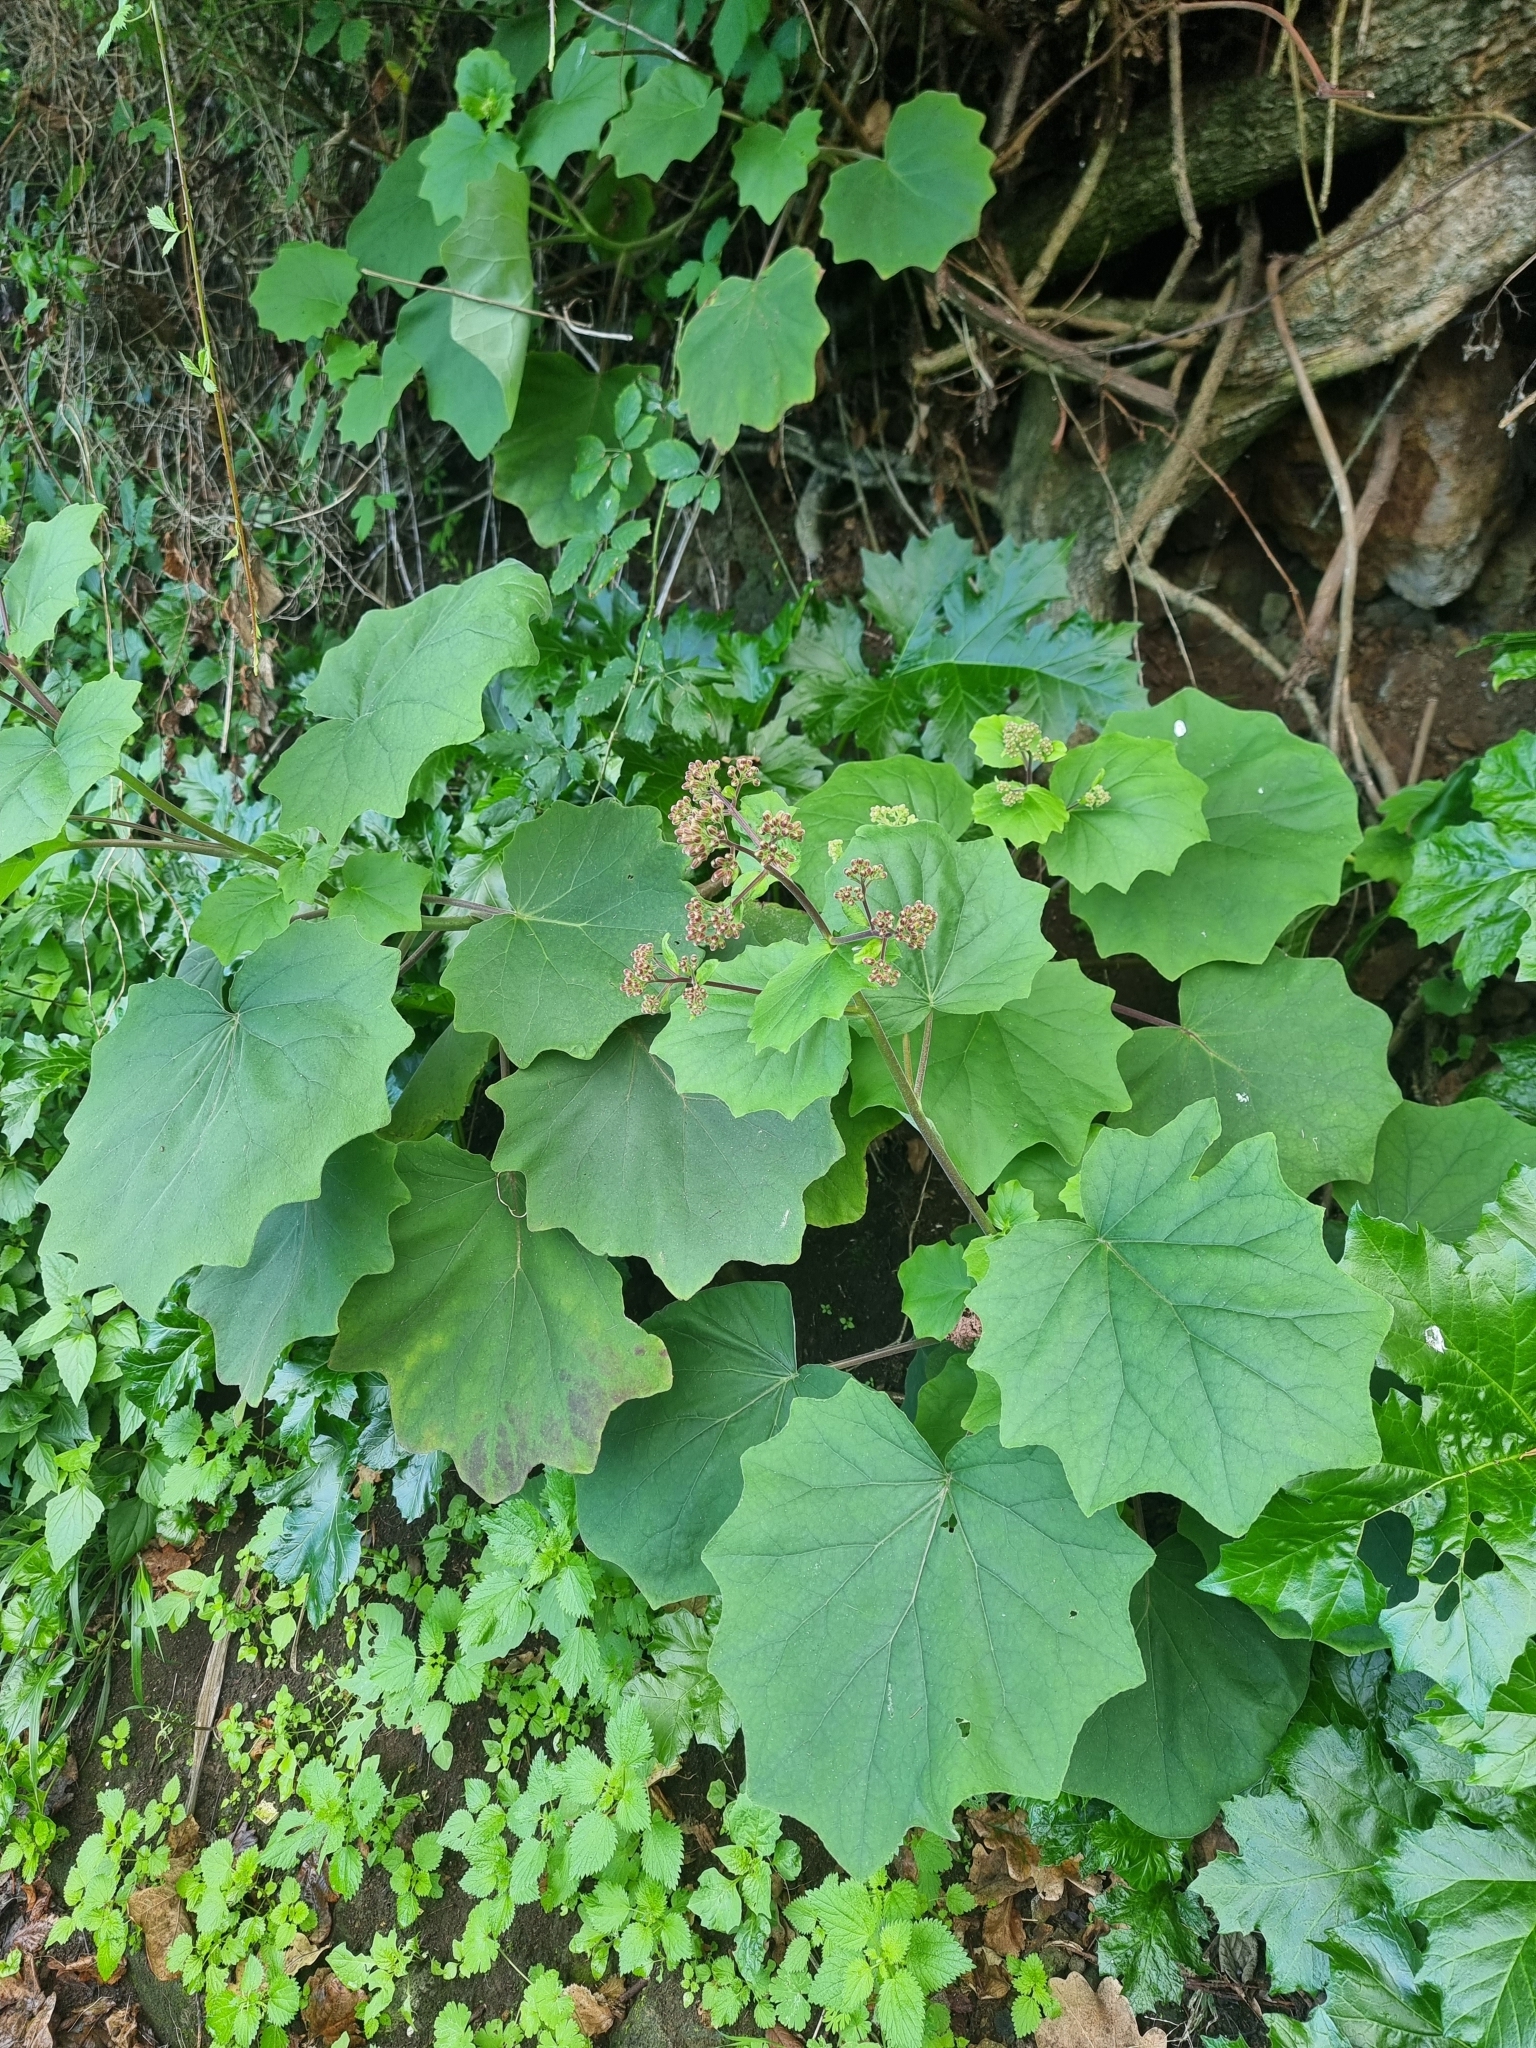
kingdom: Plantae
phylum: Tracheophyta
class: Magnoliopsida
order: Asterales
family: Asteraceae
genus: Roldana
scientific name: Roldana petasitis
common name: California-geranium
